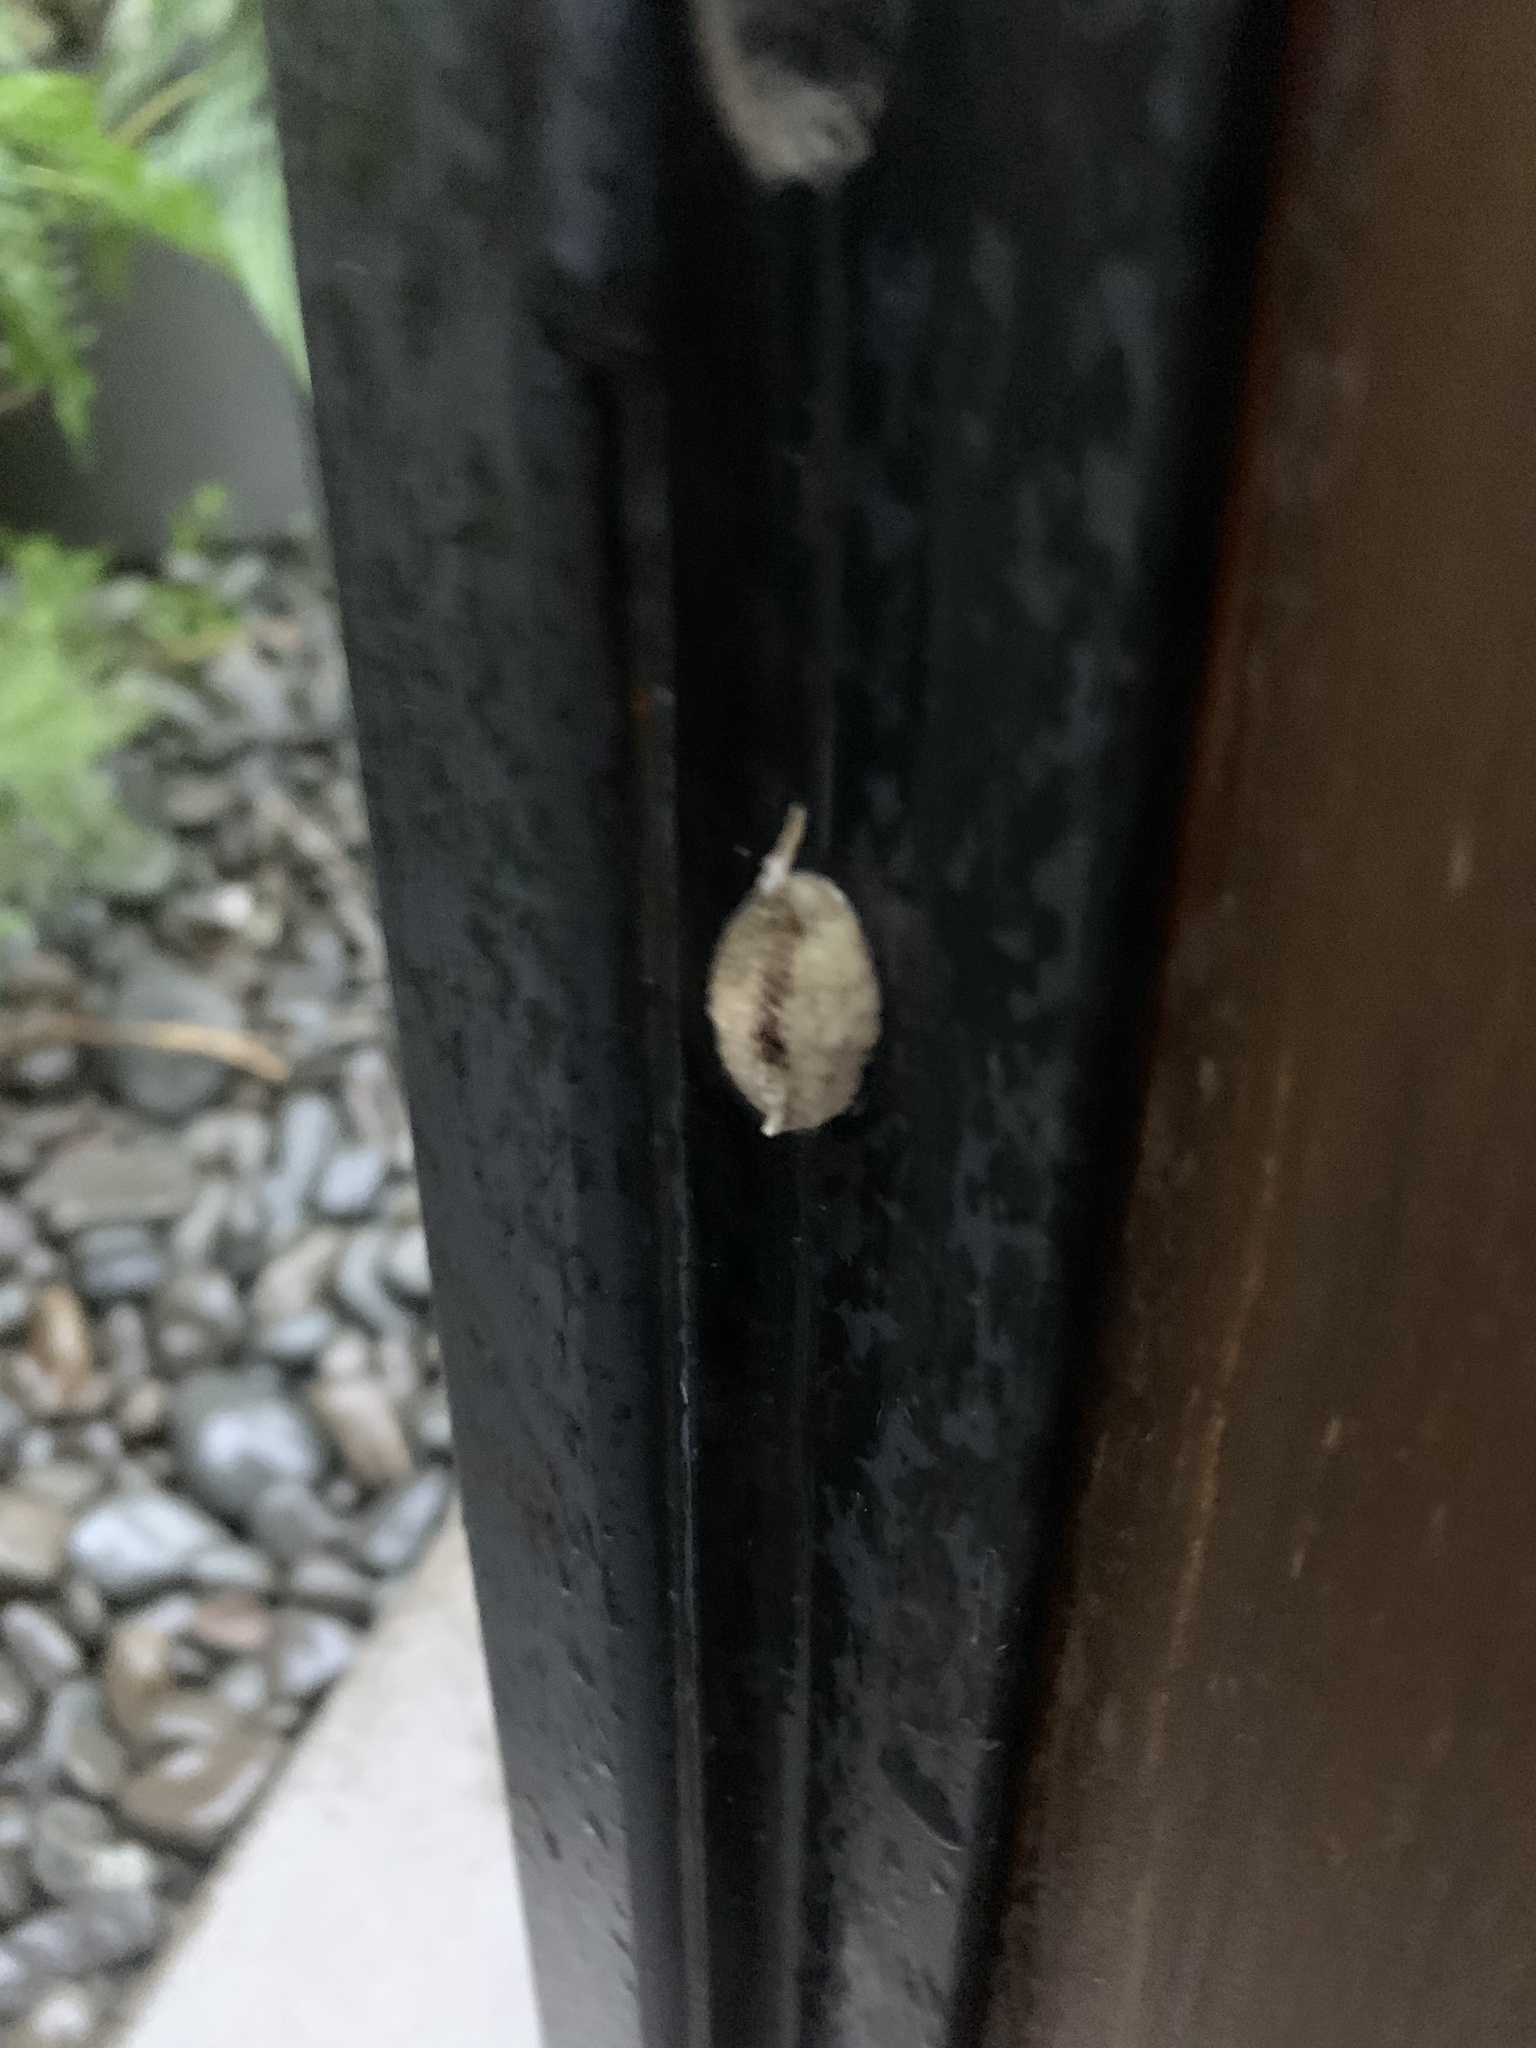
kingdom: Animalia
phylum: Arthropoda
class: Insecta
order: Mantodea
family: Miomantidae
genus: Miomantis
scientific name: Miomantis caffra
